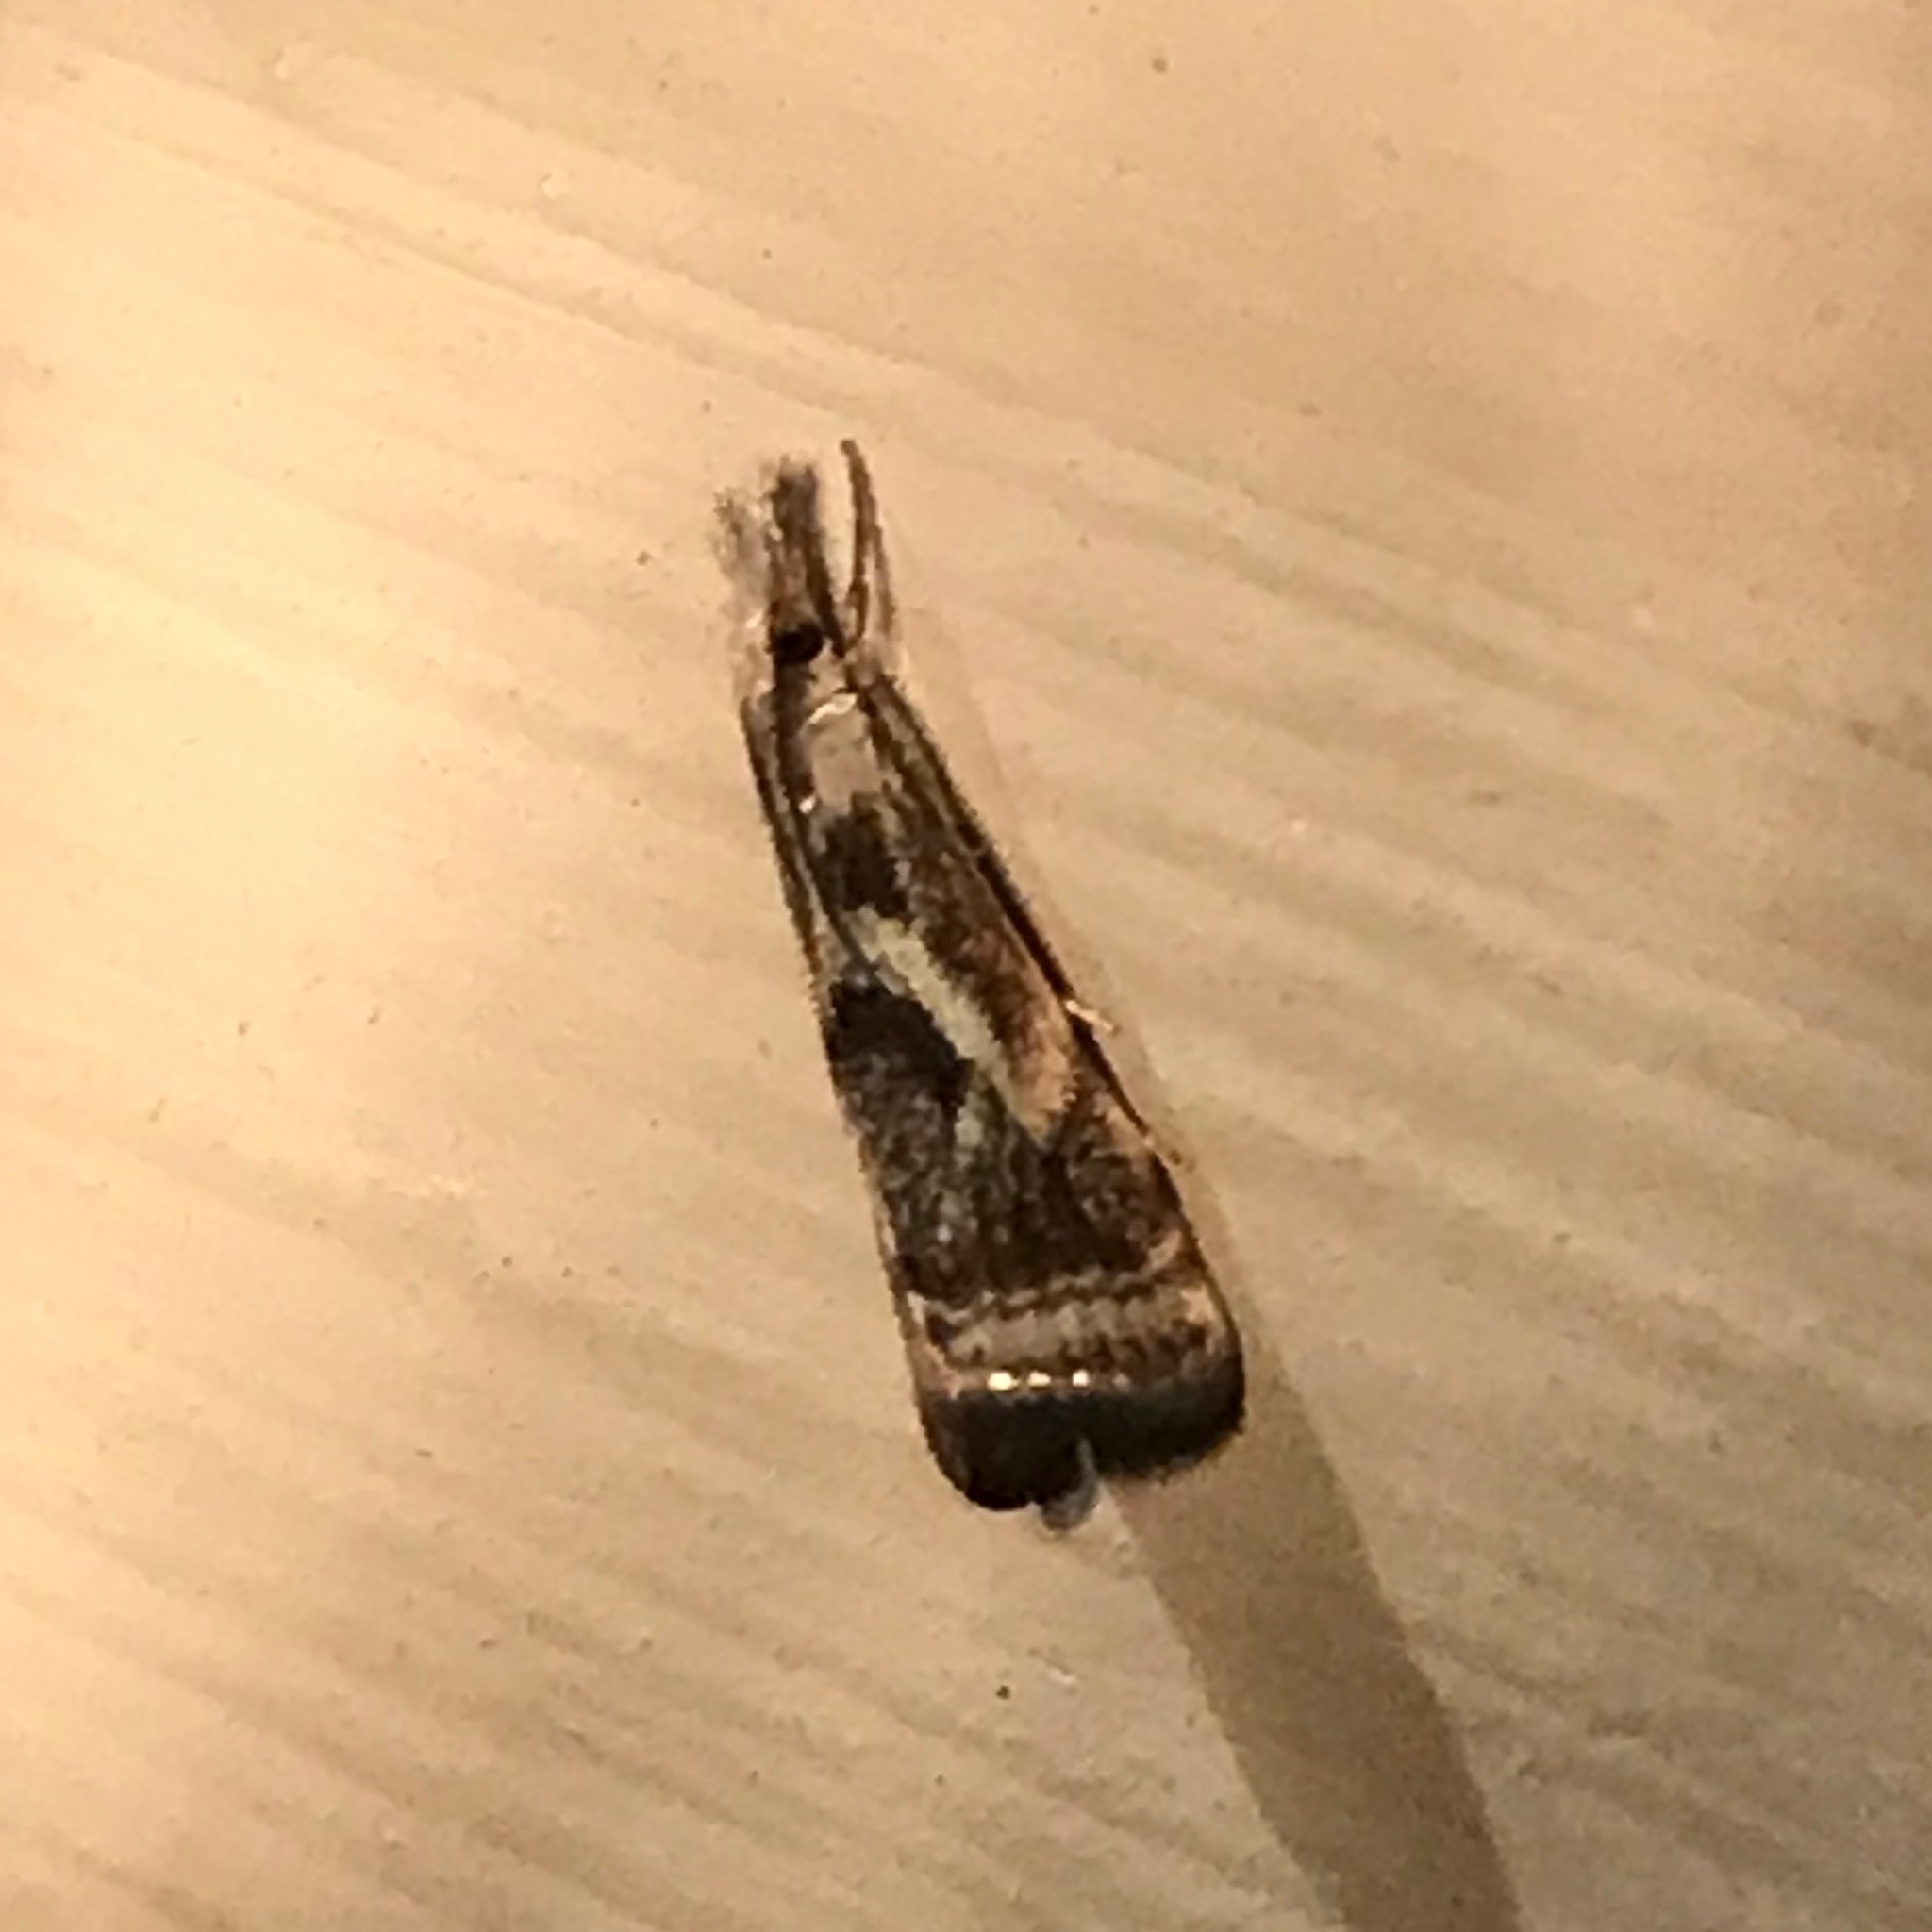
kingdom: Animalia
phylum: Arthropoda
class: Insecta
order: Lepidoptera
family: Crambidae
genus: Microcrambus
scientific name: Microcrambus elegans
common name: Elegant grass-veneer
